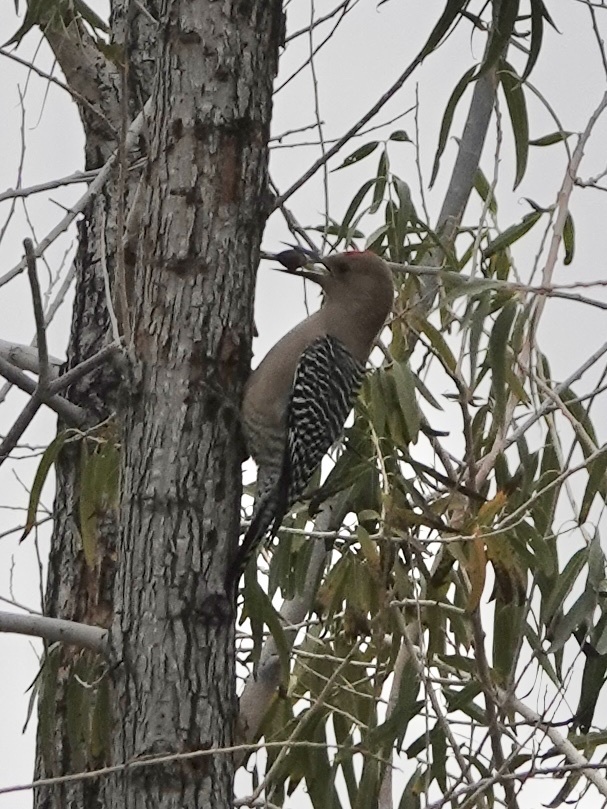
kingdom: Animalia
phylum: Chordata
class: Aves
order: Piciformes
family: Picidae
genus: Melanerpes
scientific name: Melanerpes uropygialis
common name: Gila woodpecker
